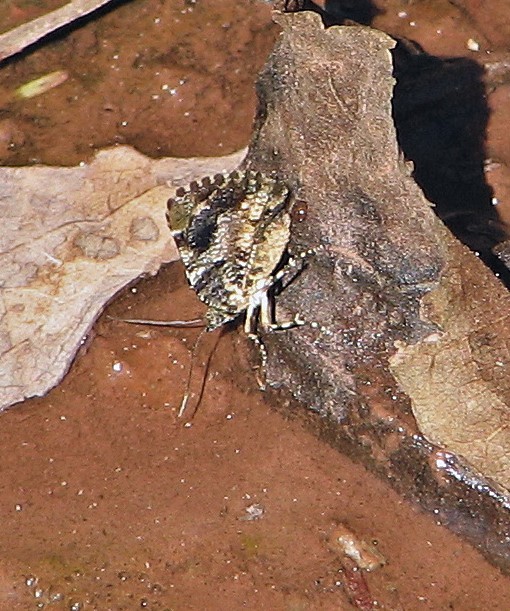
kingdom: Animalia
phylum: Arthropoda
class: Insecta
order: Lepidoptera
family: Geometridae
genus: Heterusia
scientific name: Heterusia cruciata
